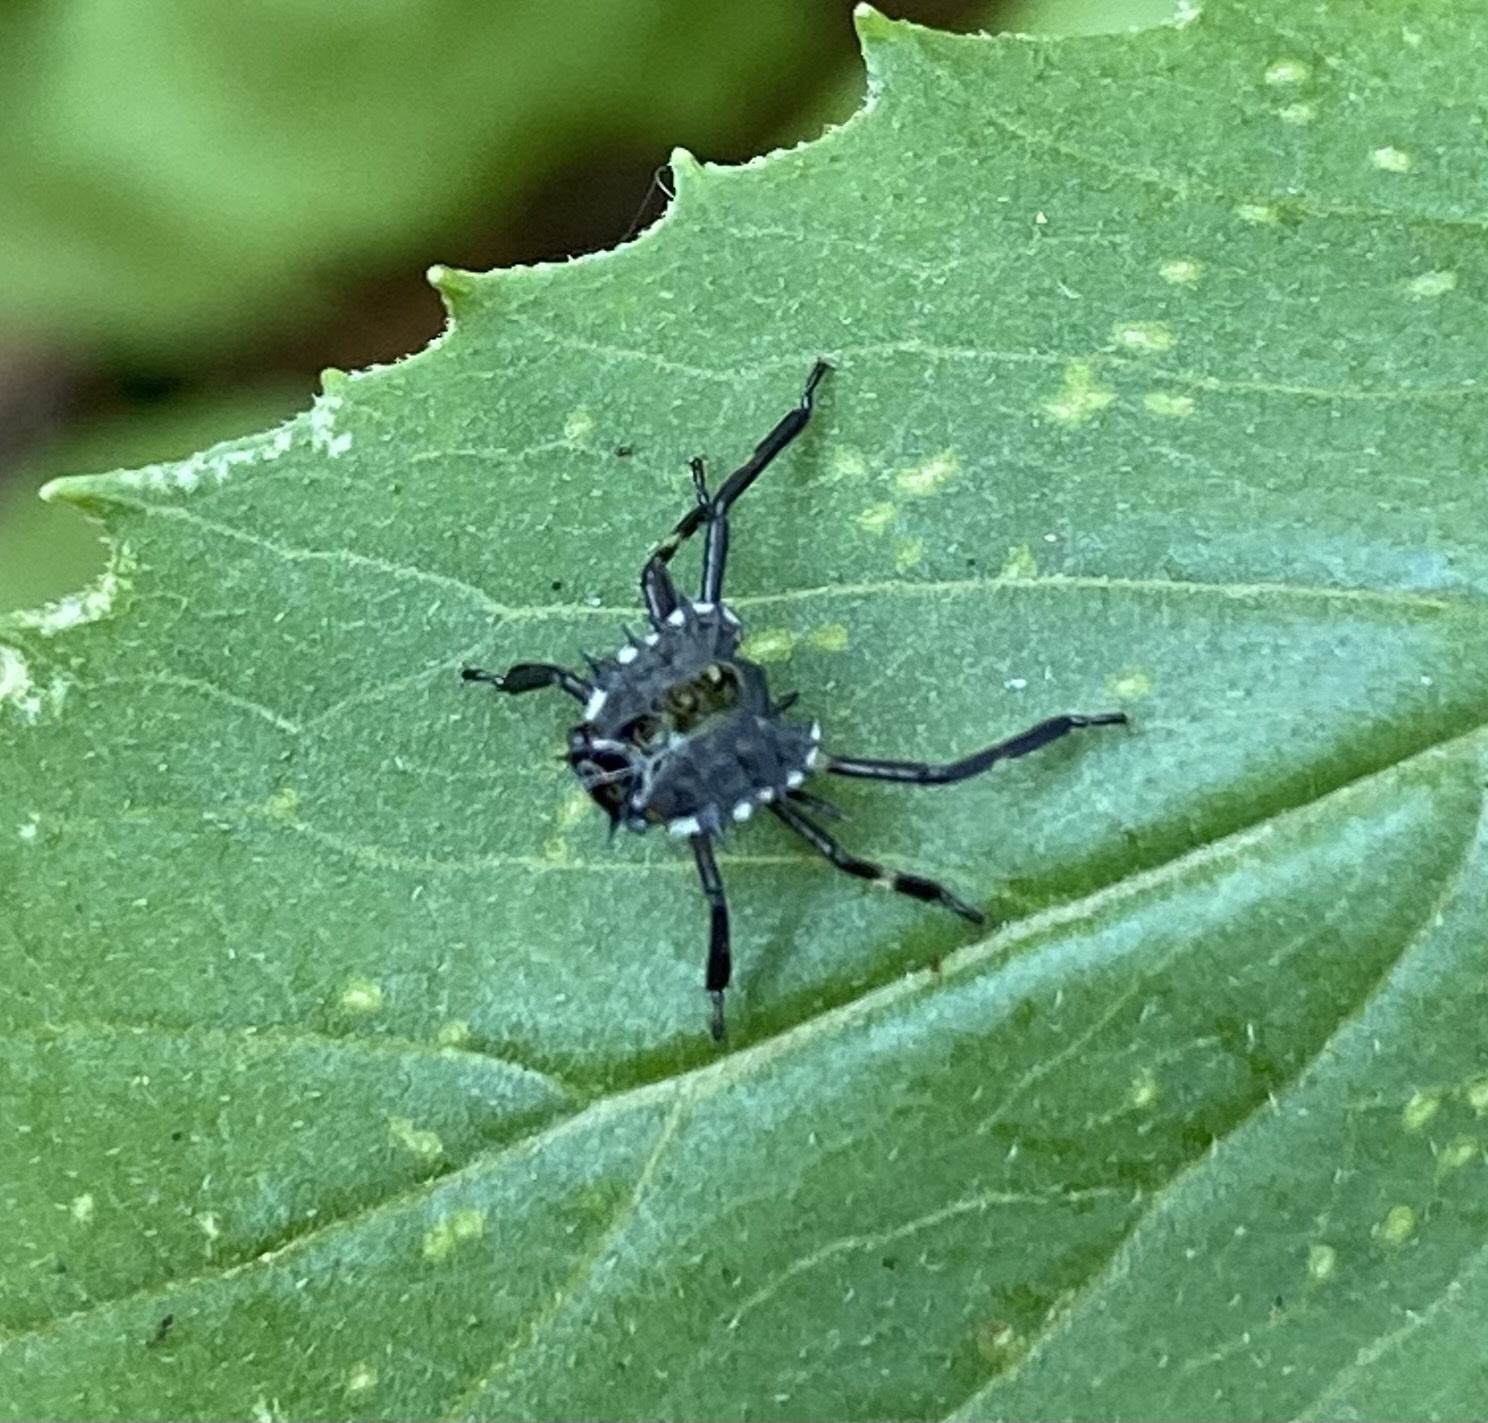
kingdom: Animalia
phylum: Arthropoda
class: Insecta
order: Hemiptera
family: Pentatomidae
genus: Halyomorpha
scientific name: Halyomorpha halys
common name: Brown marmorated stink bug
